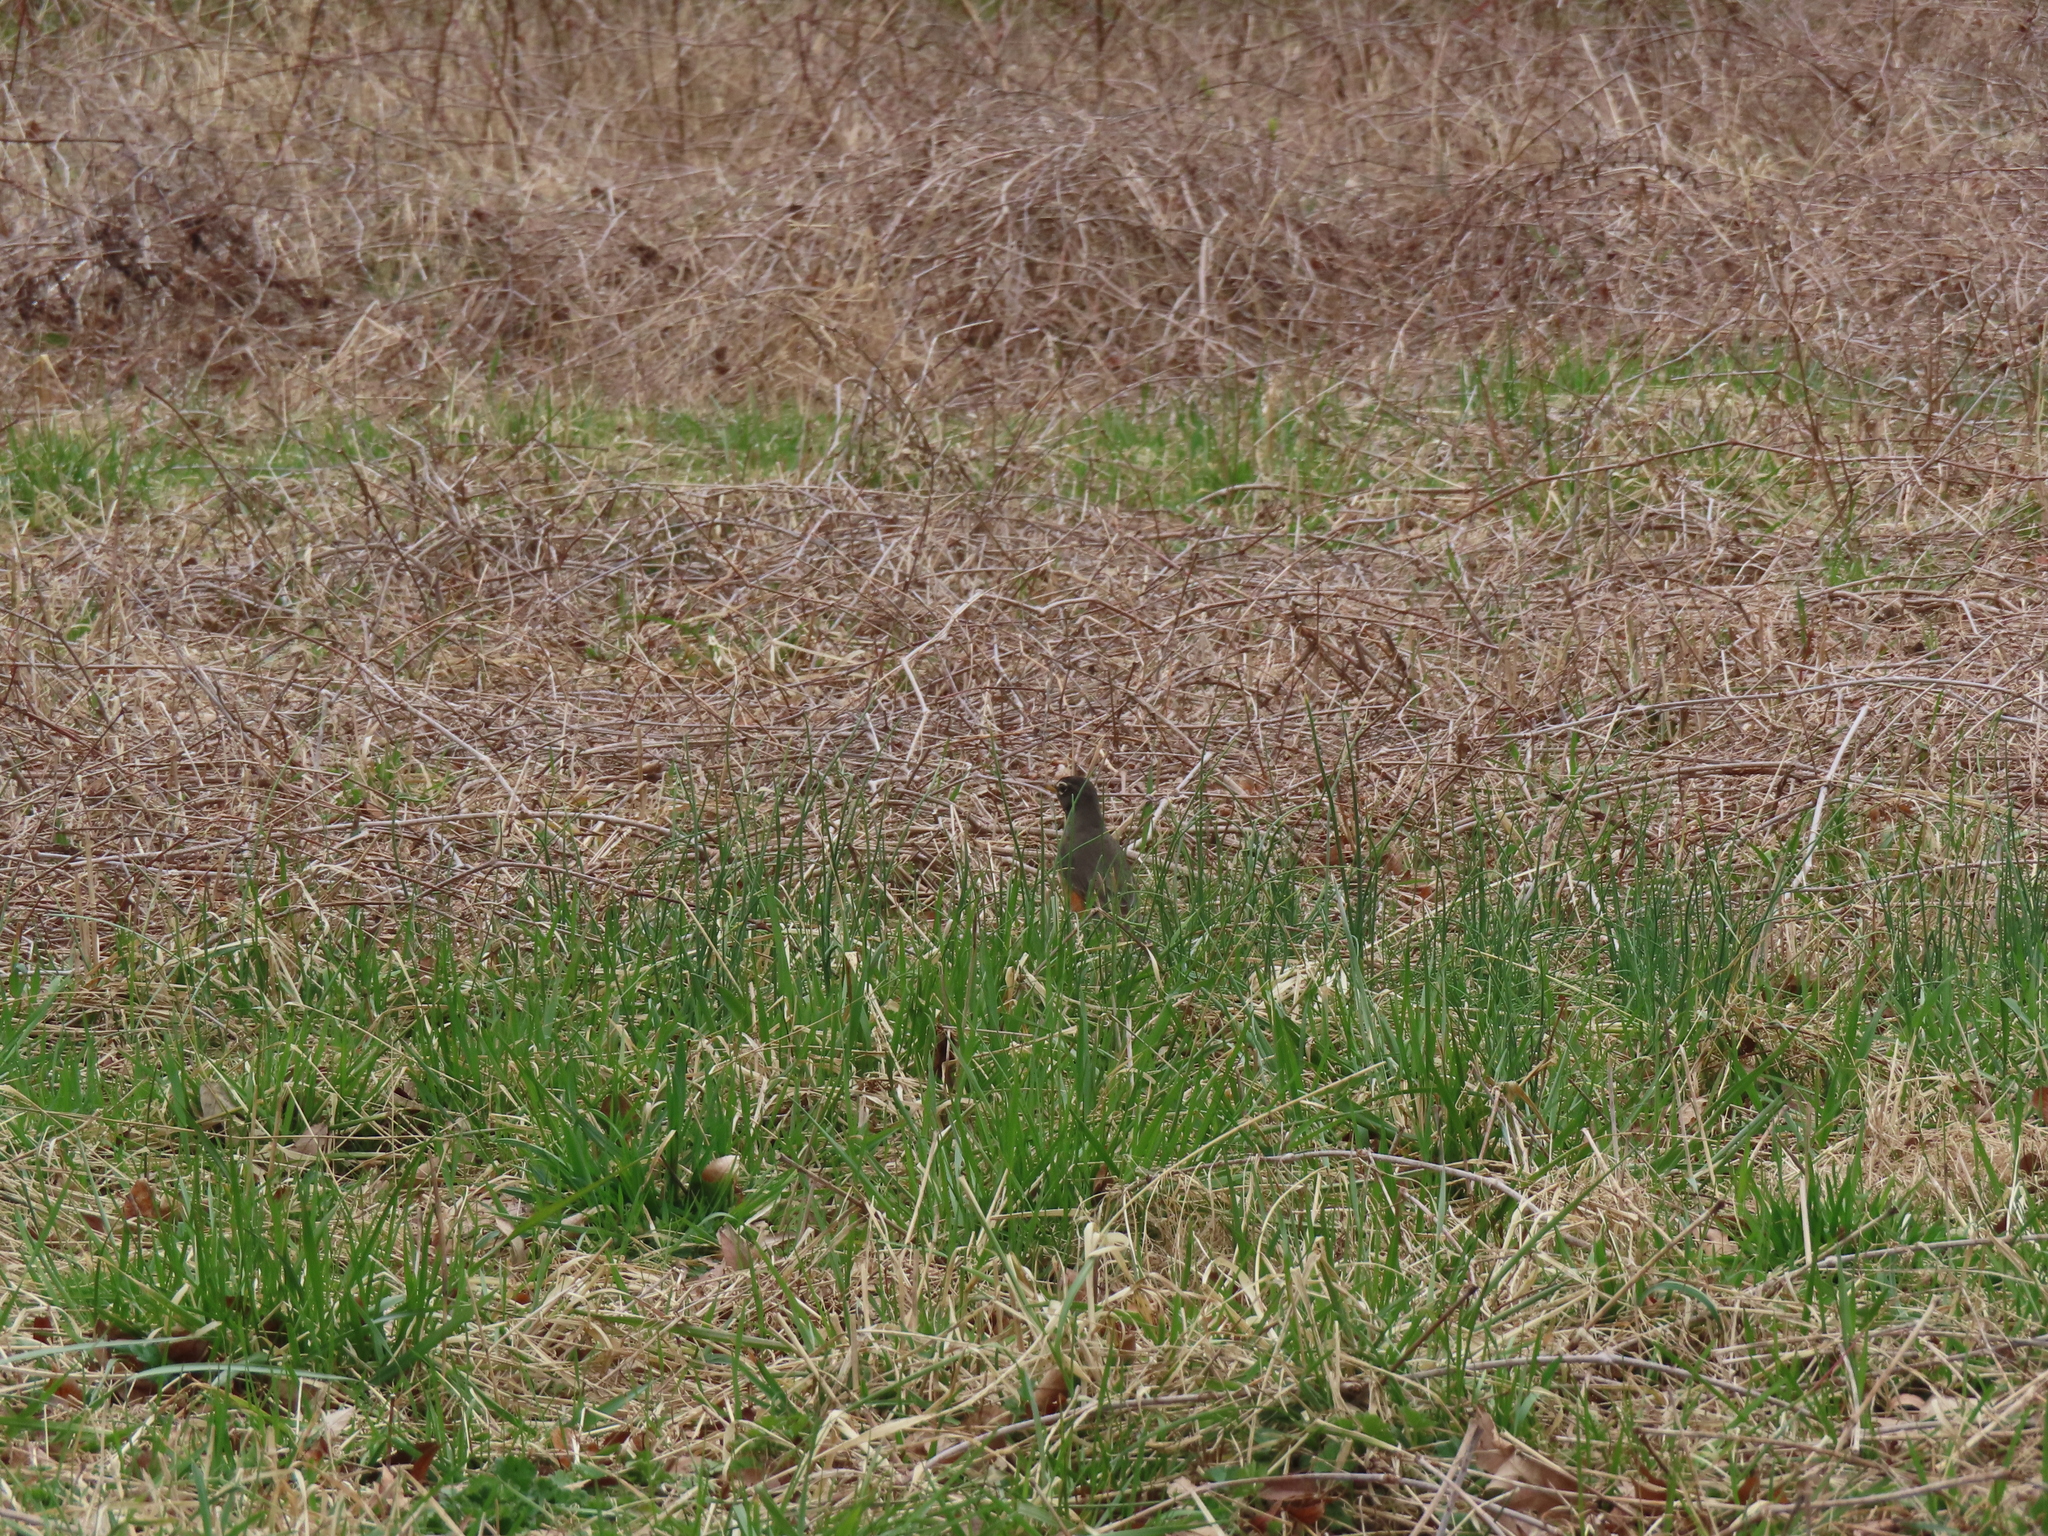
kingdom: Animalia
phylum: Chordata
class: Aves
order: Passeriformes
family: Turdidae
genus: Turdus
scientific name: Turdus migratorius
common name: American robin
